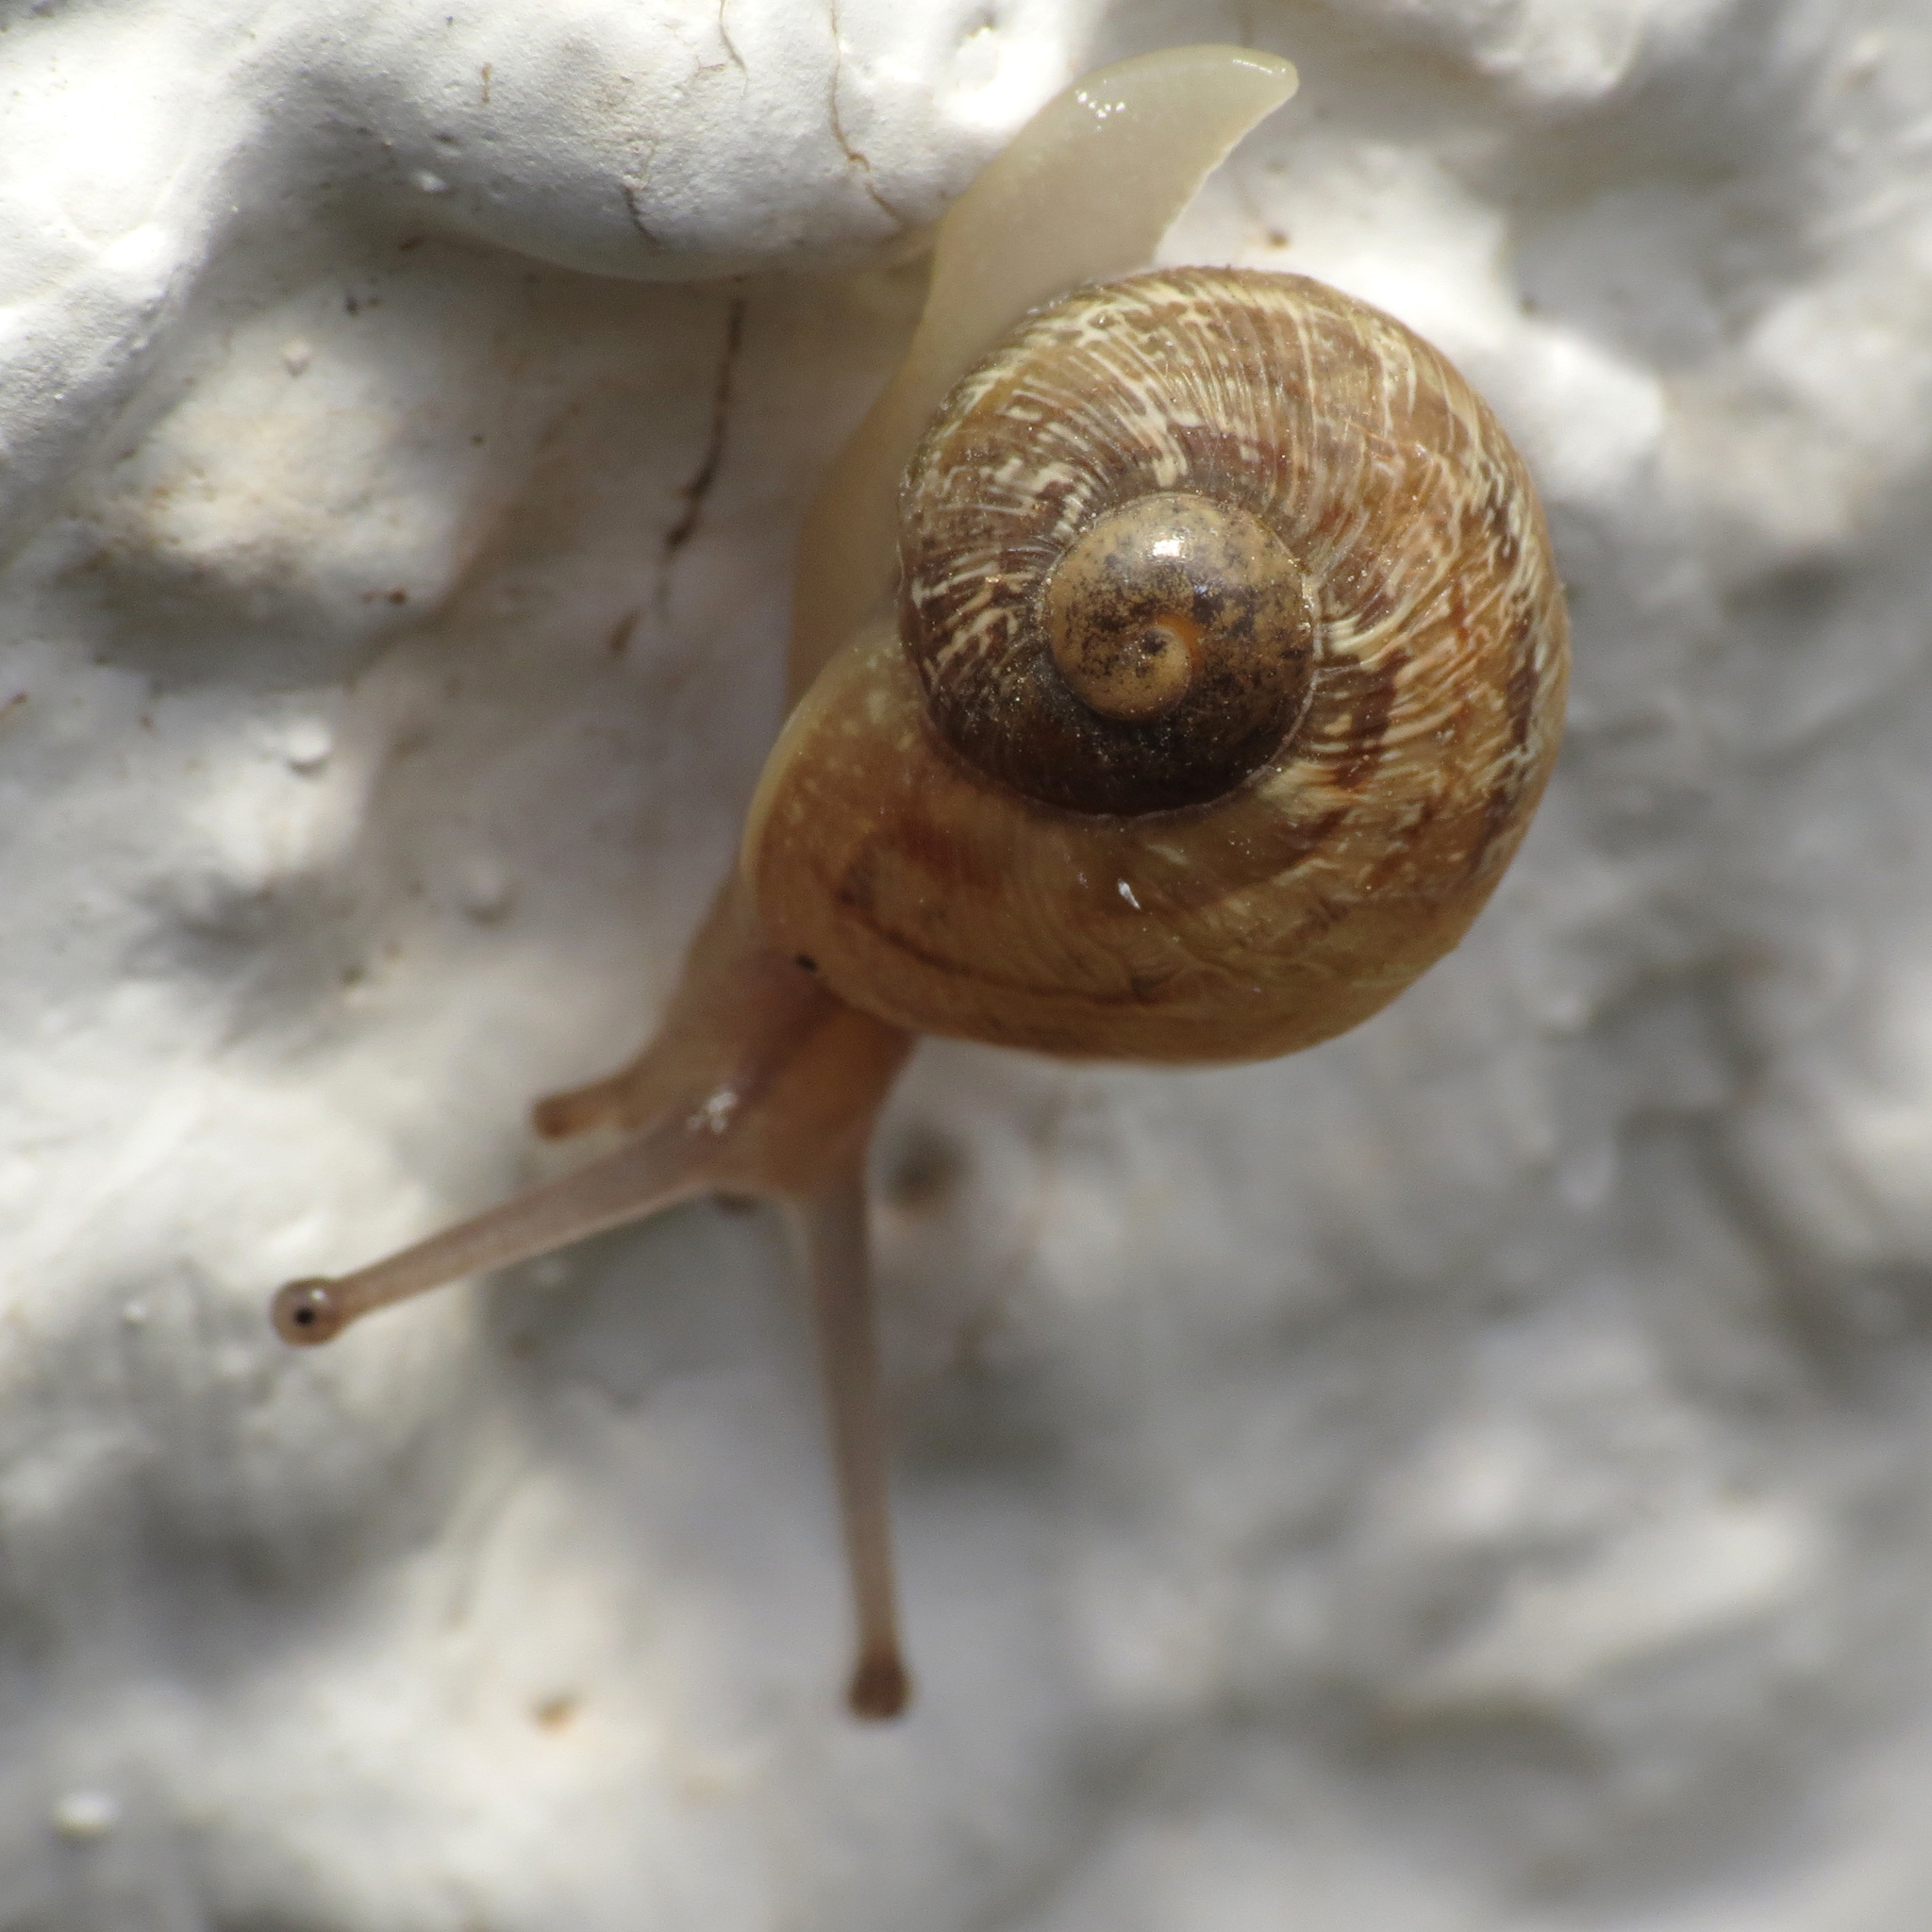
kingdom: Animalia
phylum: Mollusca
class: Gastropoda
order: Stylommatophora
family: Helicidae
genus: Cornu
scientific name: Cornu aspersum
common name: Brown garden snail
